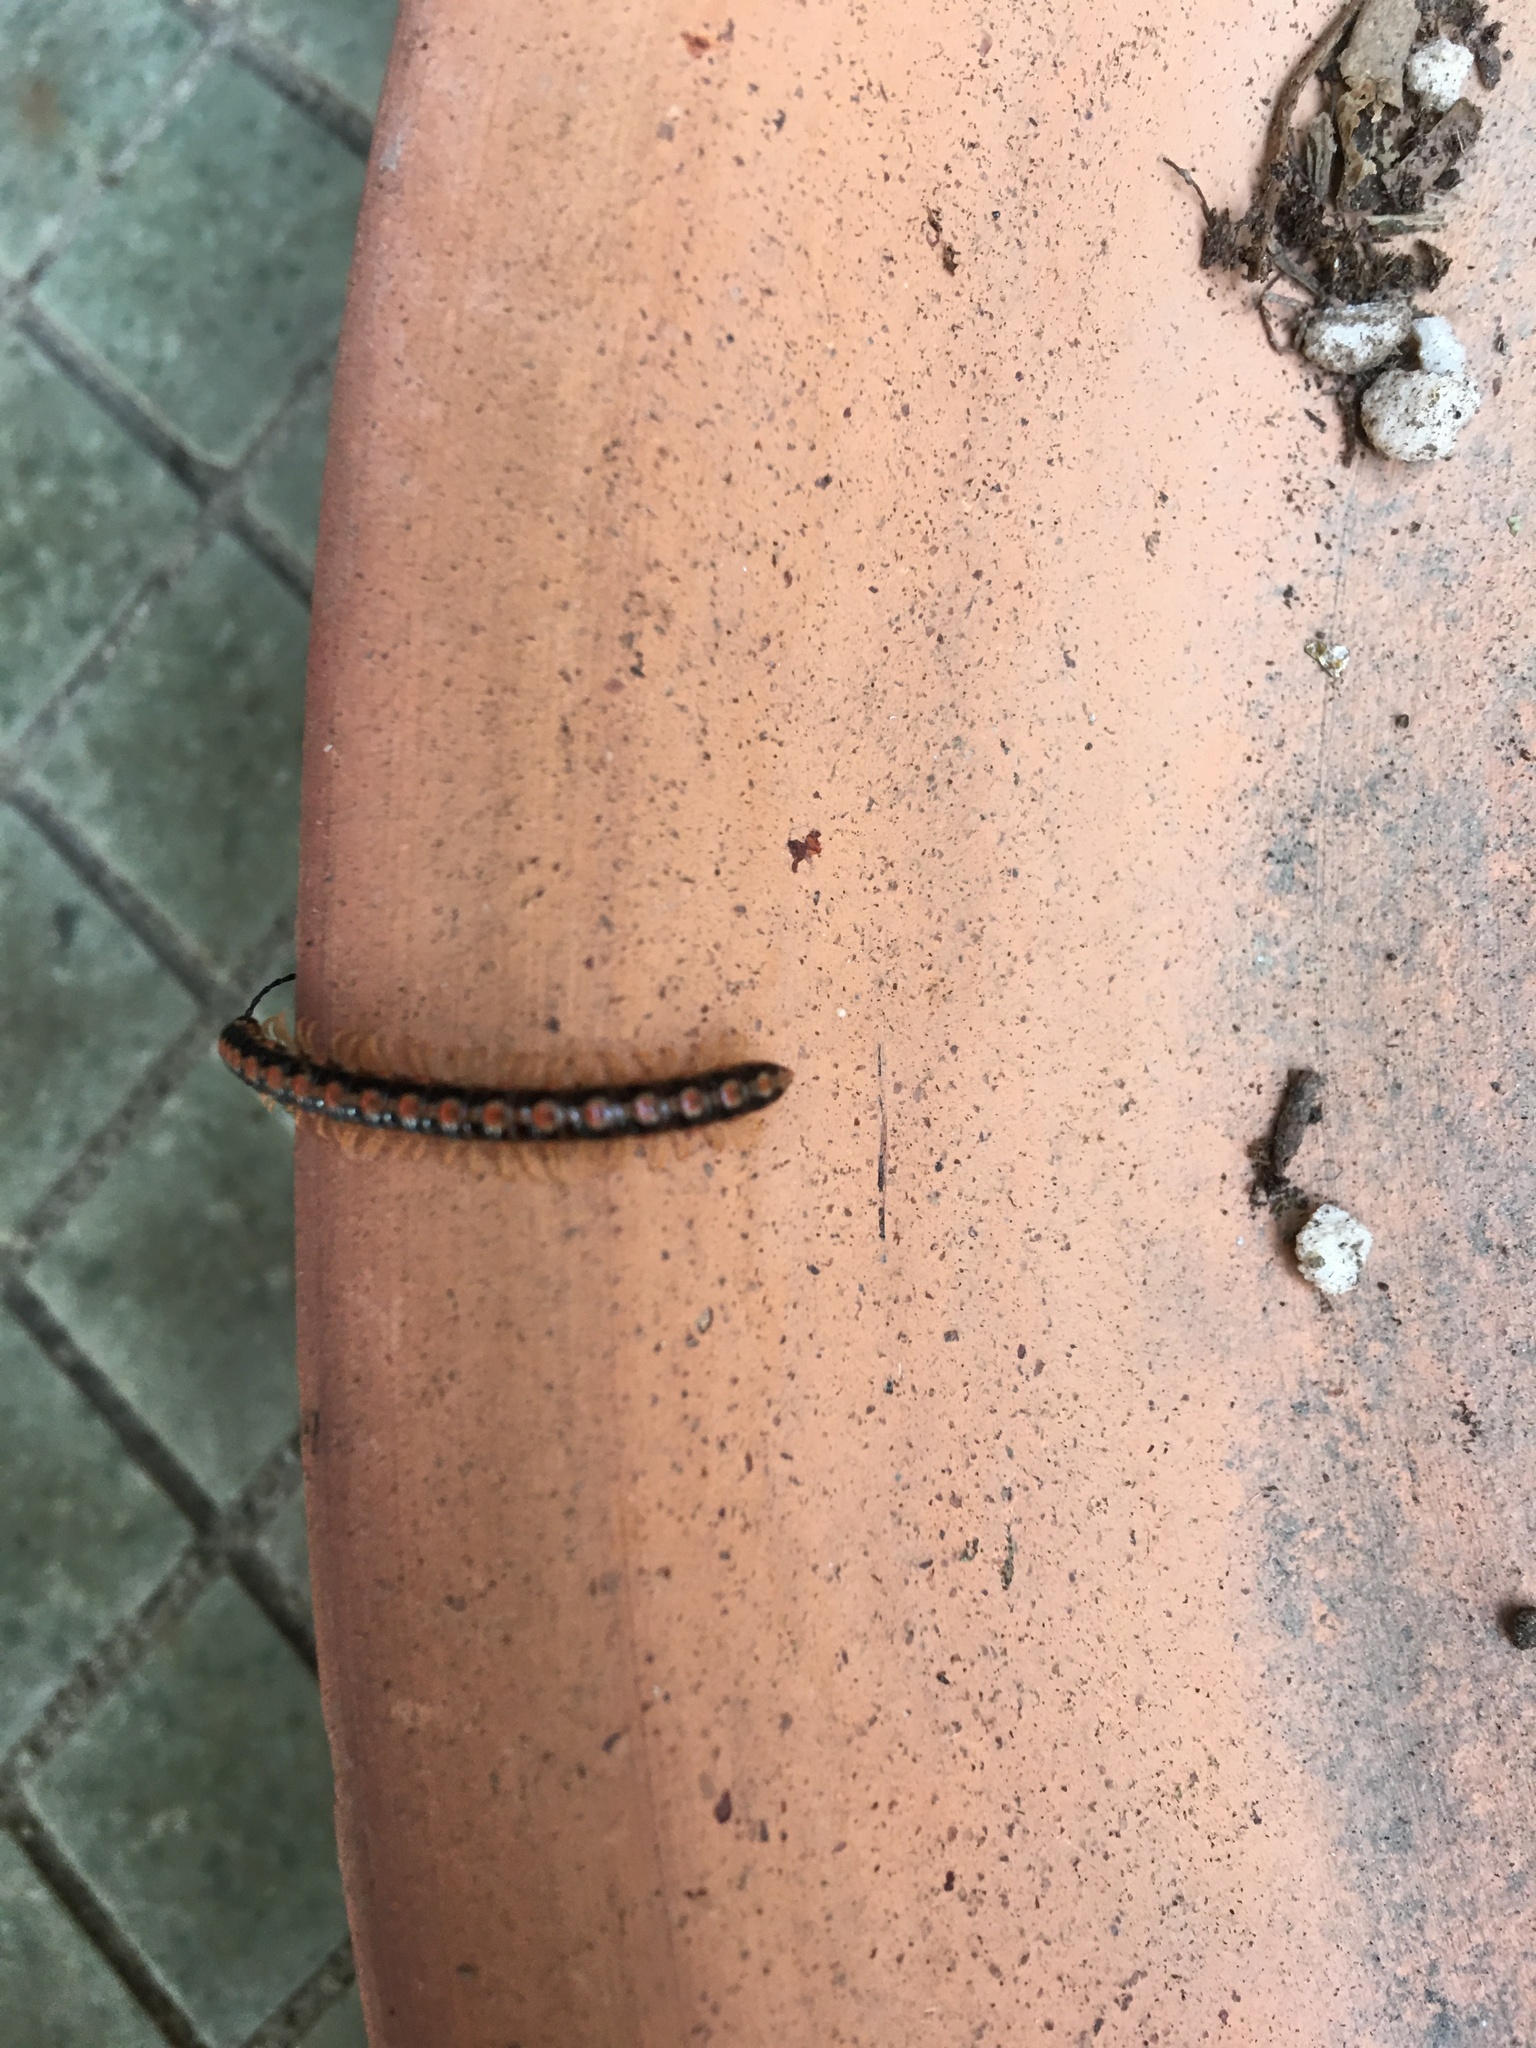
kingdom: Animalia
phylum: Arthropoda
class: Diplopoda
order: Polydesmida
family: Paradoxosomatidae
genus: Helicorthomorpha
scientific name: Helicorthomorpha holstii
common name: Millipede
